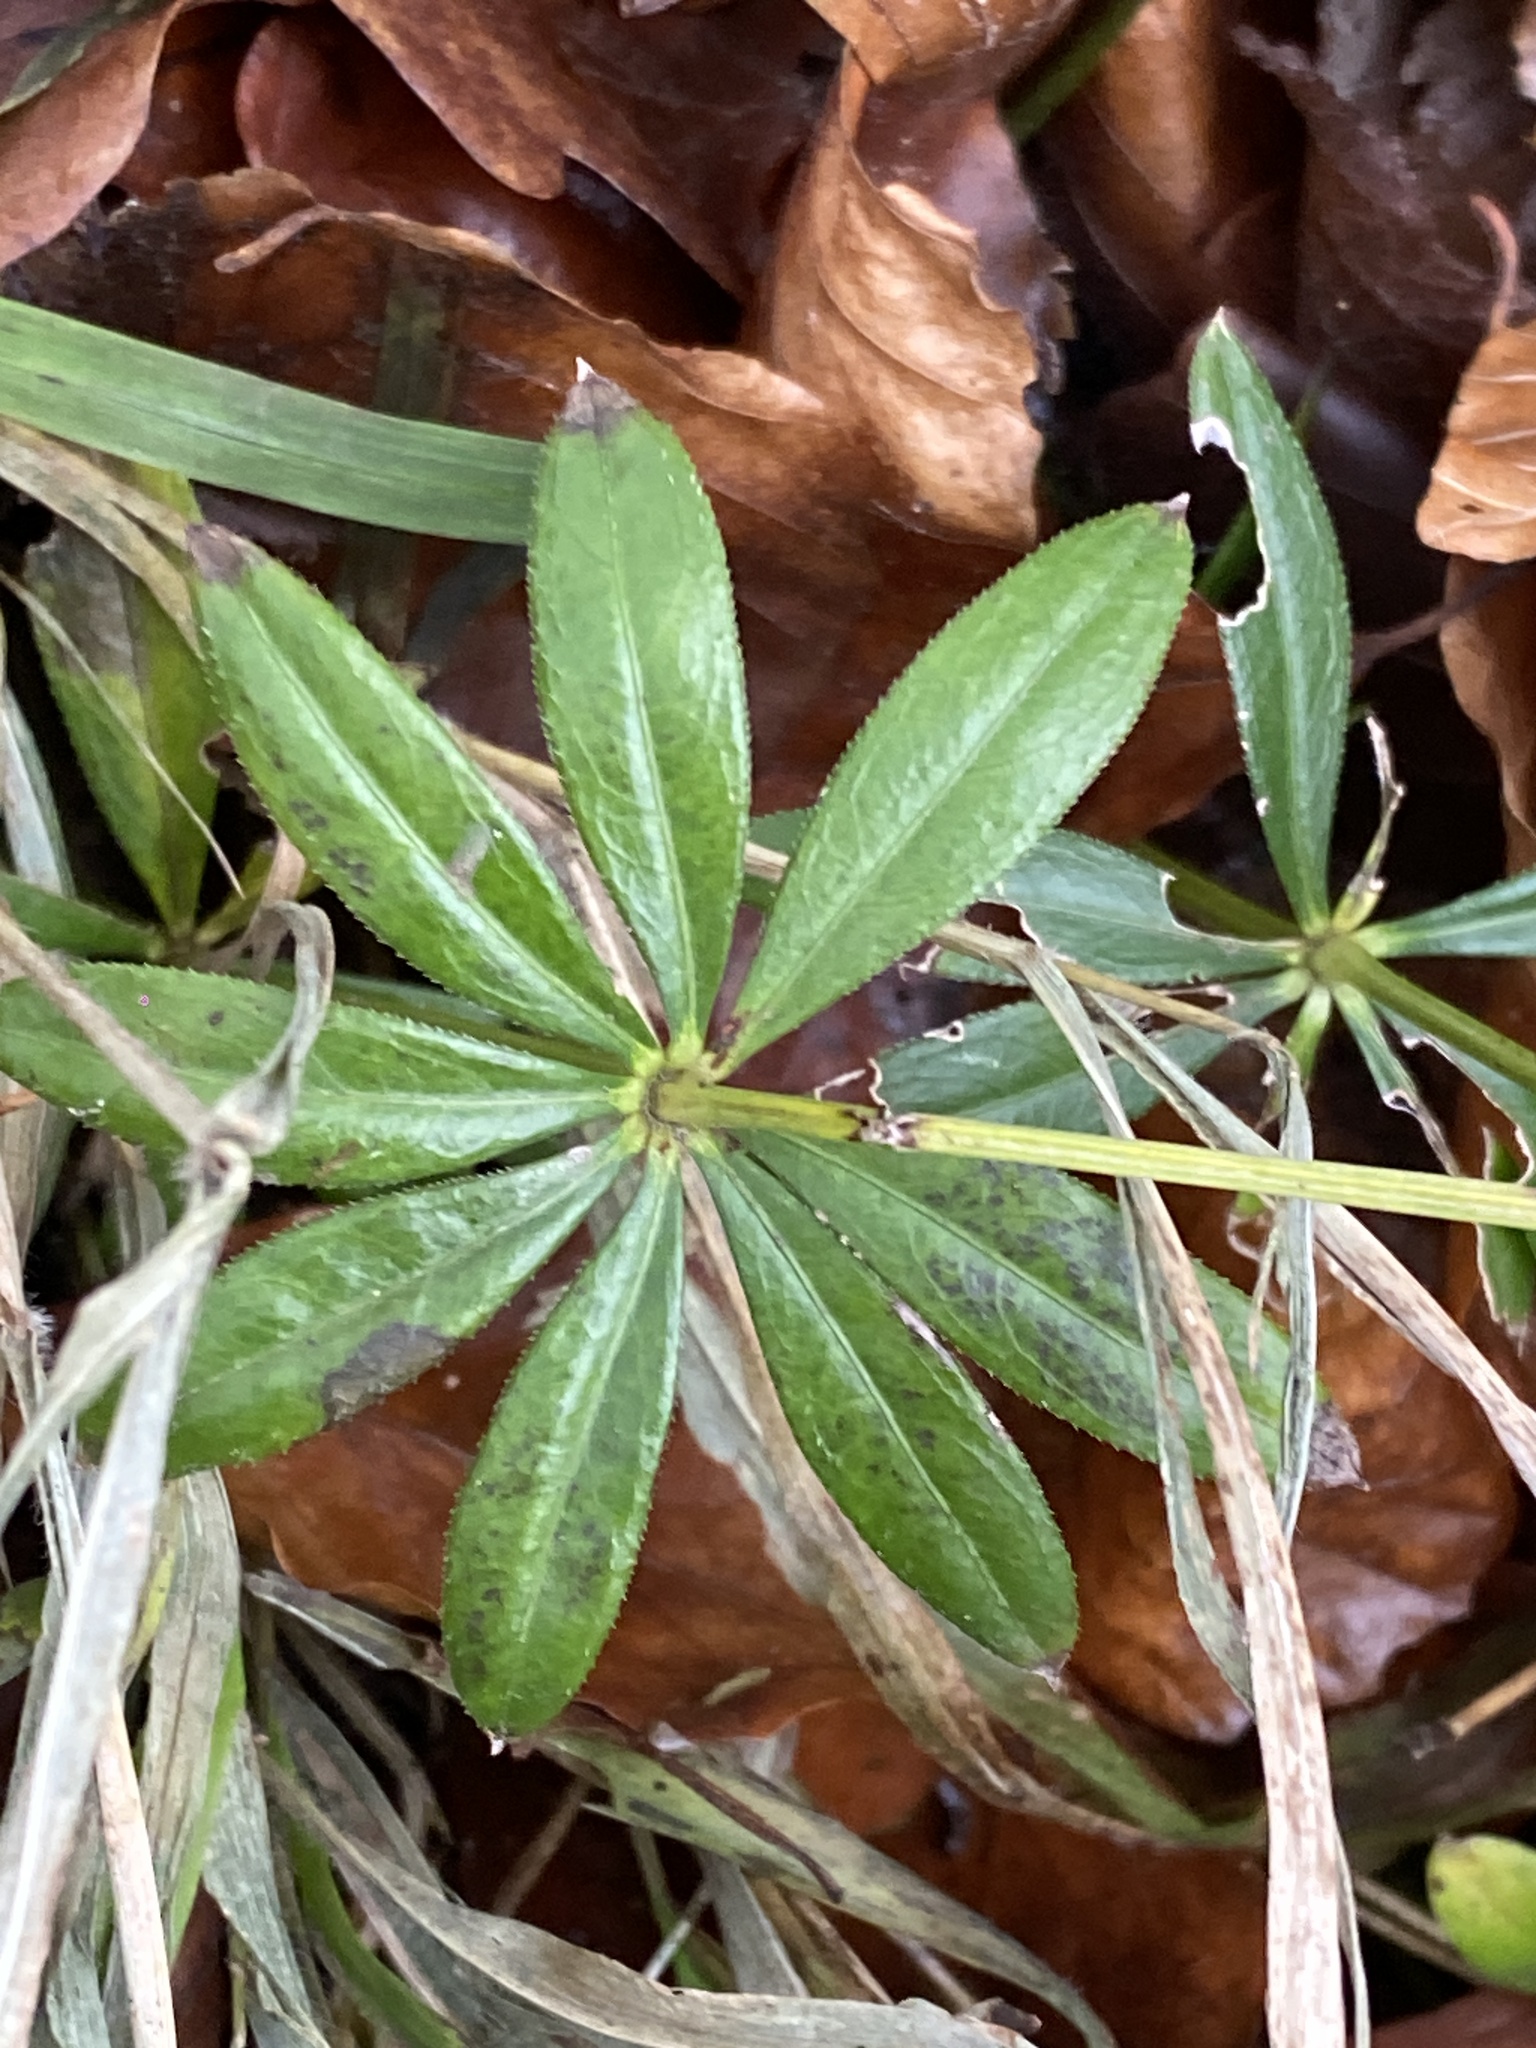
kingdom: Plantae
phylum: Tracheophyta
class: Magnoliopsida
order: Gentianales
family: Rubiaceae
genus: Galium
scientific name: Galium odoratum
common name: Sweet woodruff
